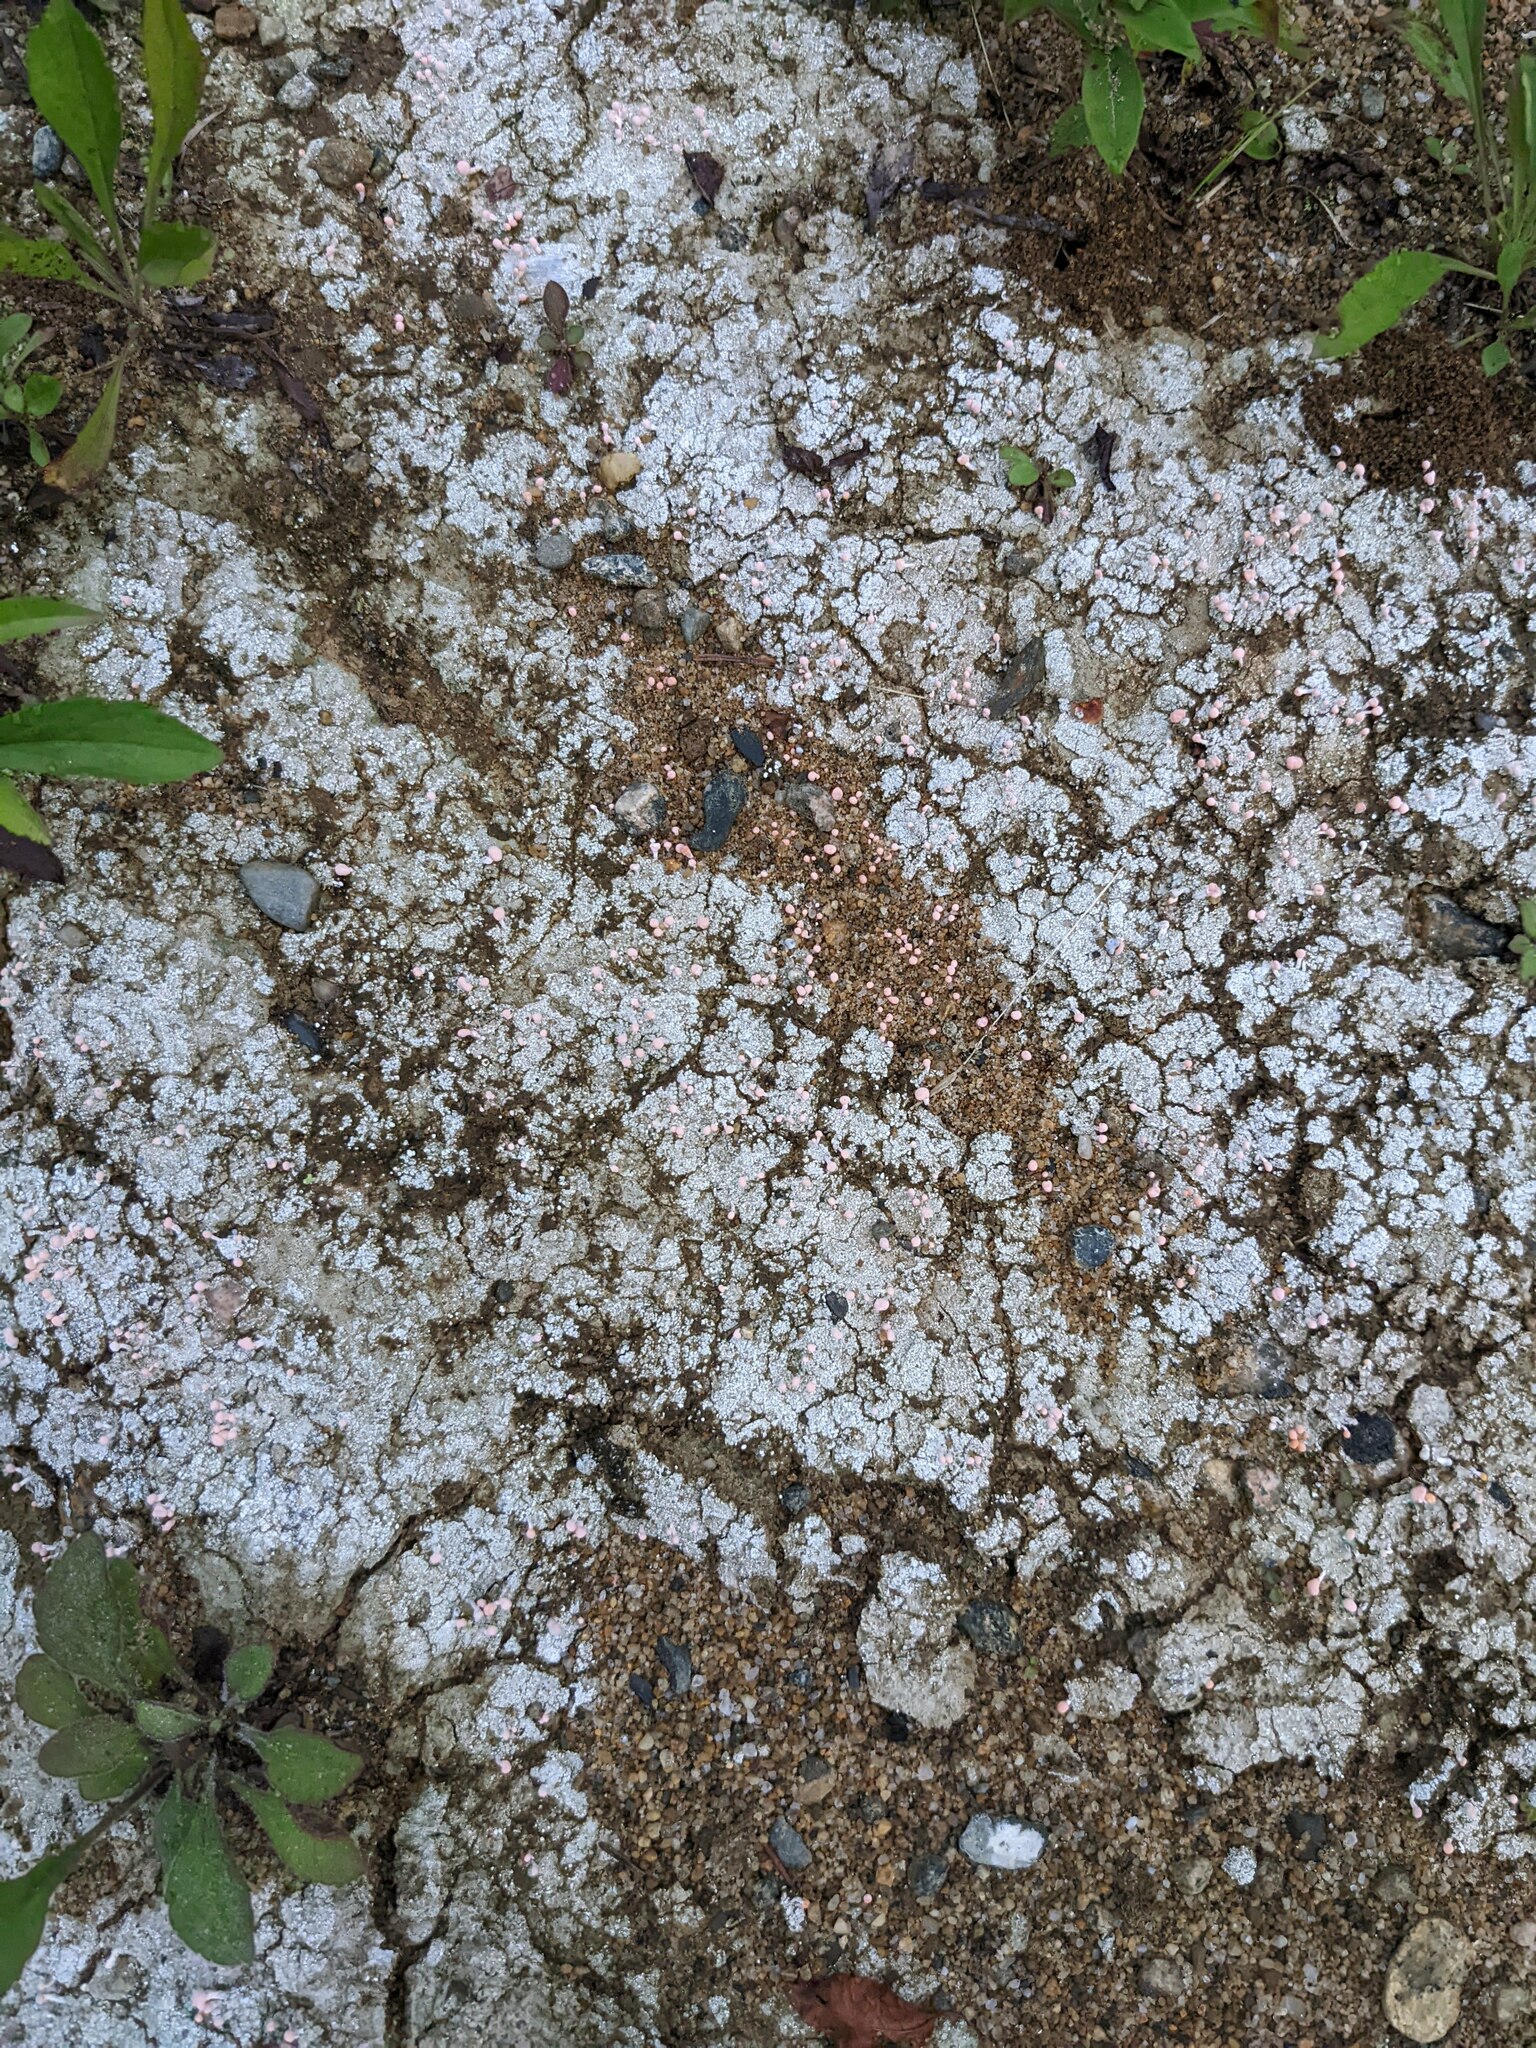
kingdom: Fungi
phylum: Ascomycota
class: Lecanoromycetes
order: Pertusariales
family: Icmadophilaceae
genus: Dibaeis
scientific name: Dibaeis baeomyces
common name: Pink earth lichen
